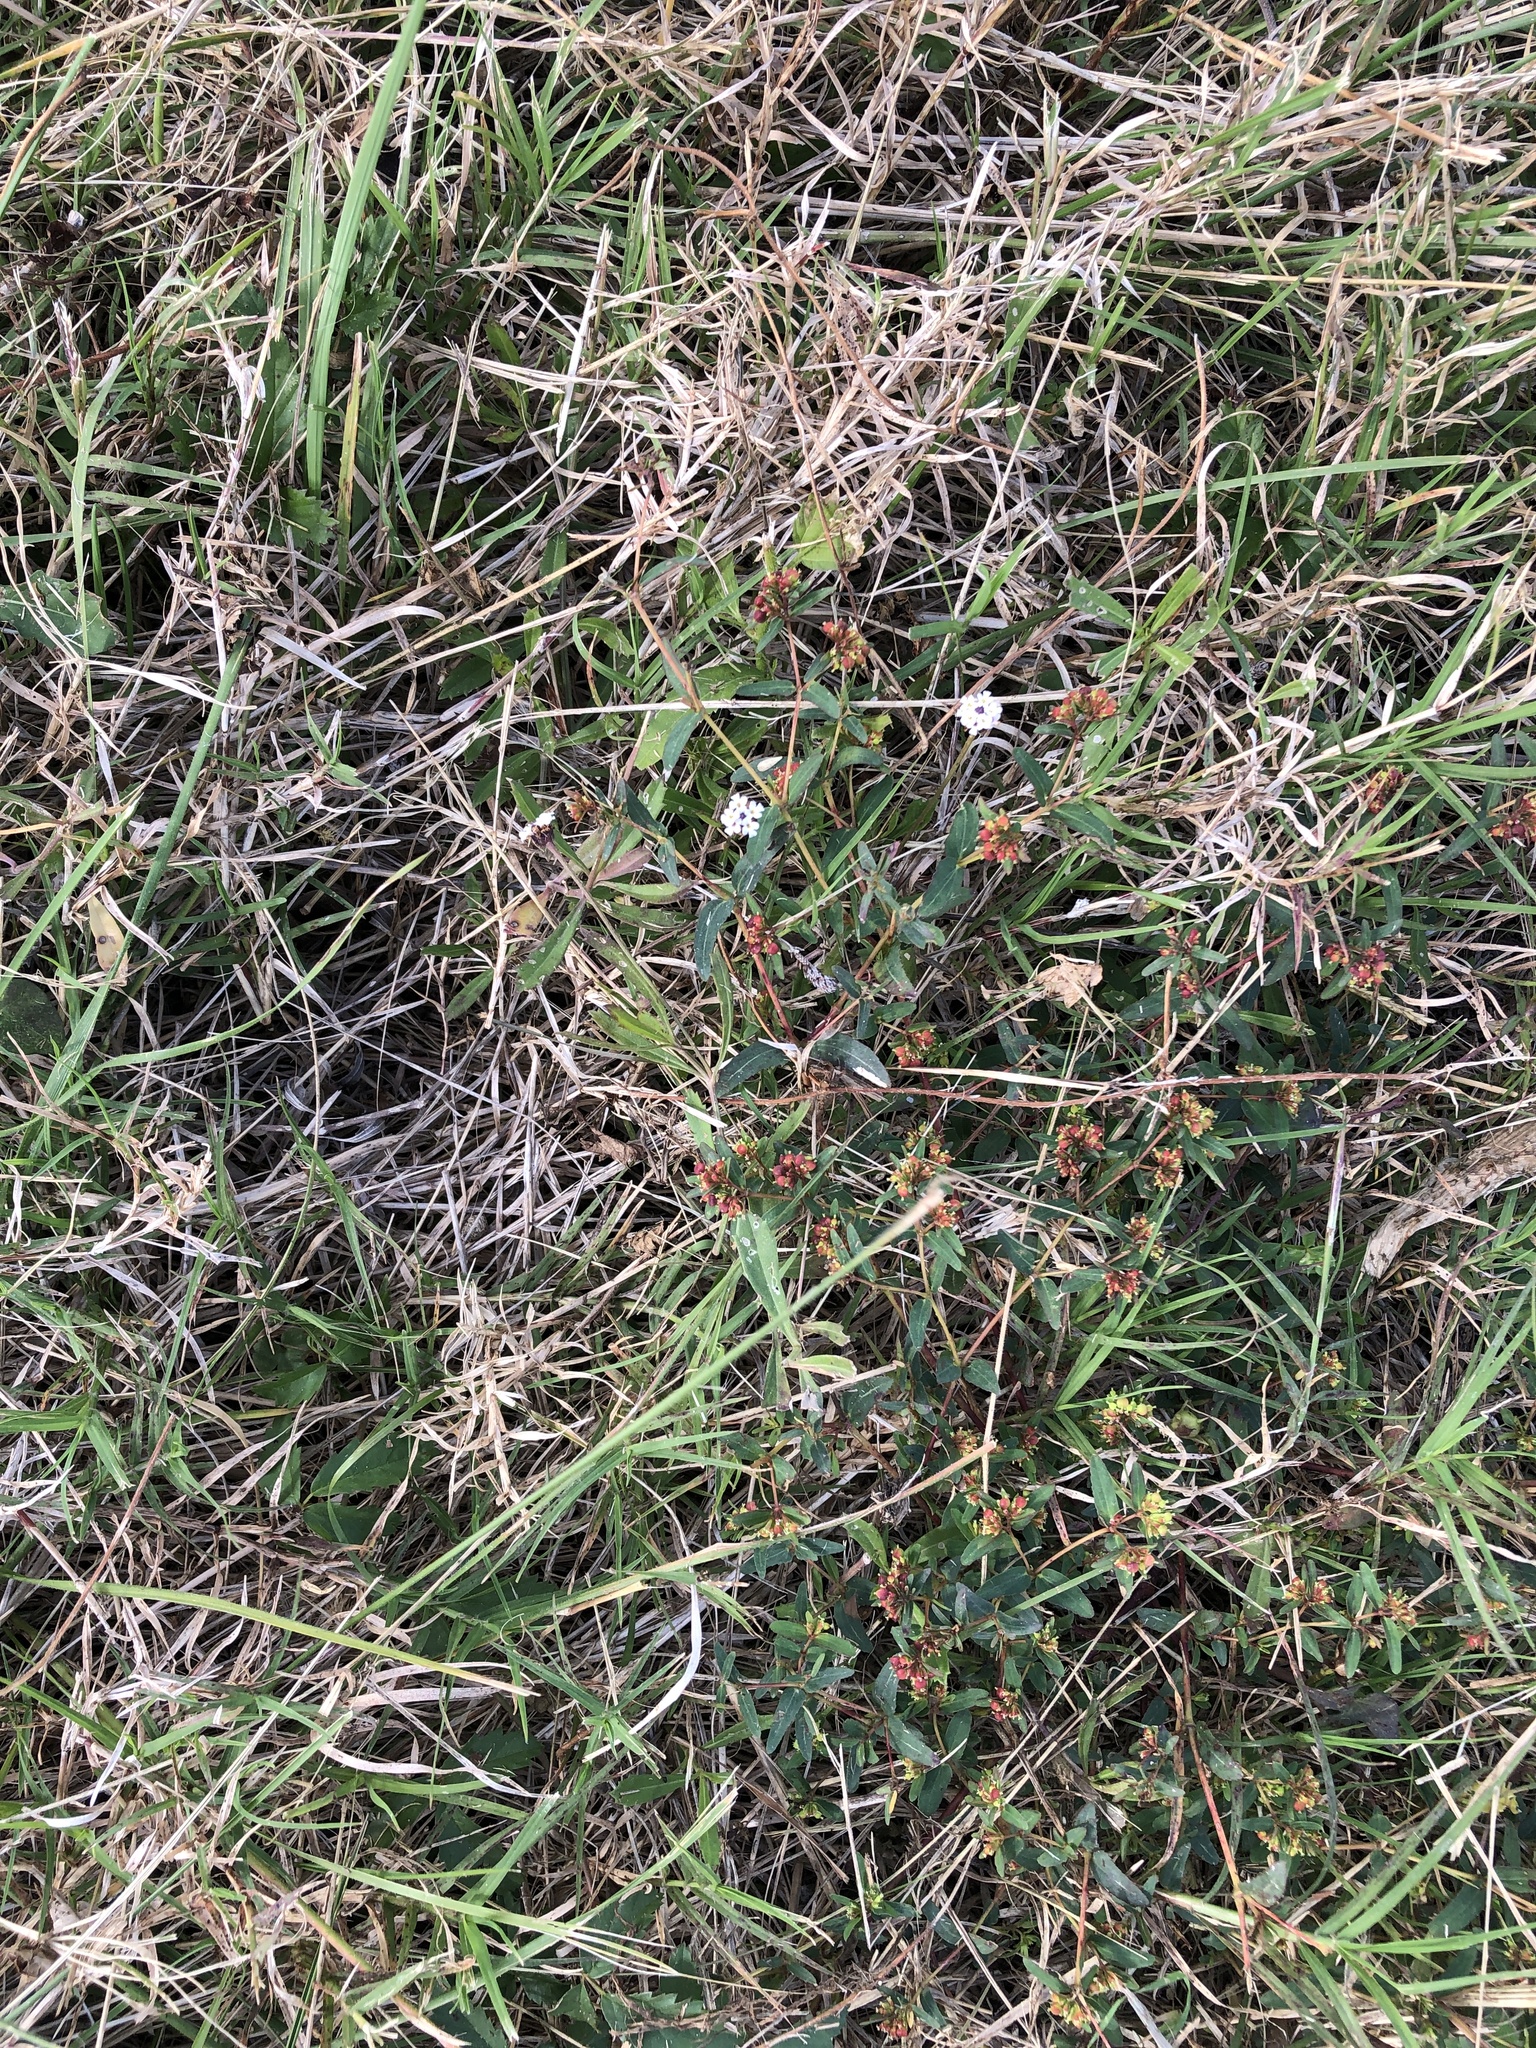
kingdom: Plantae
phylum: Tracheophyta
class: Magnoliopsida
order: Lamiales
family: Verbenaceae
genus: Phyla
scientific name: Phyla nodiflora
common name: Frogfruit
